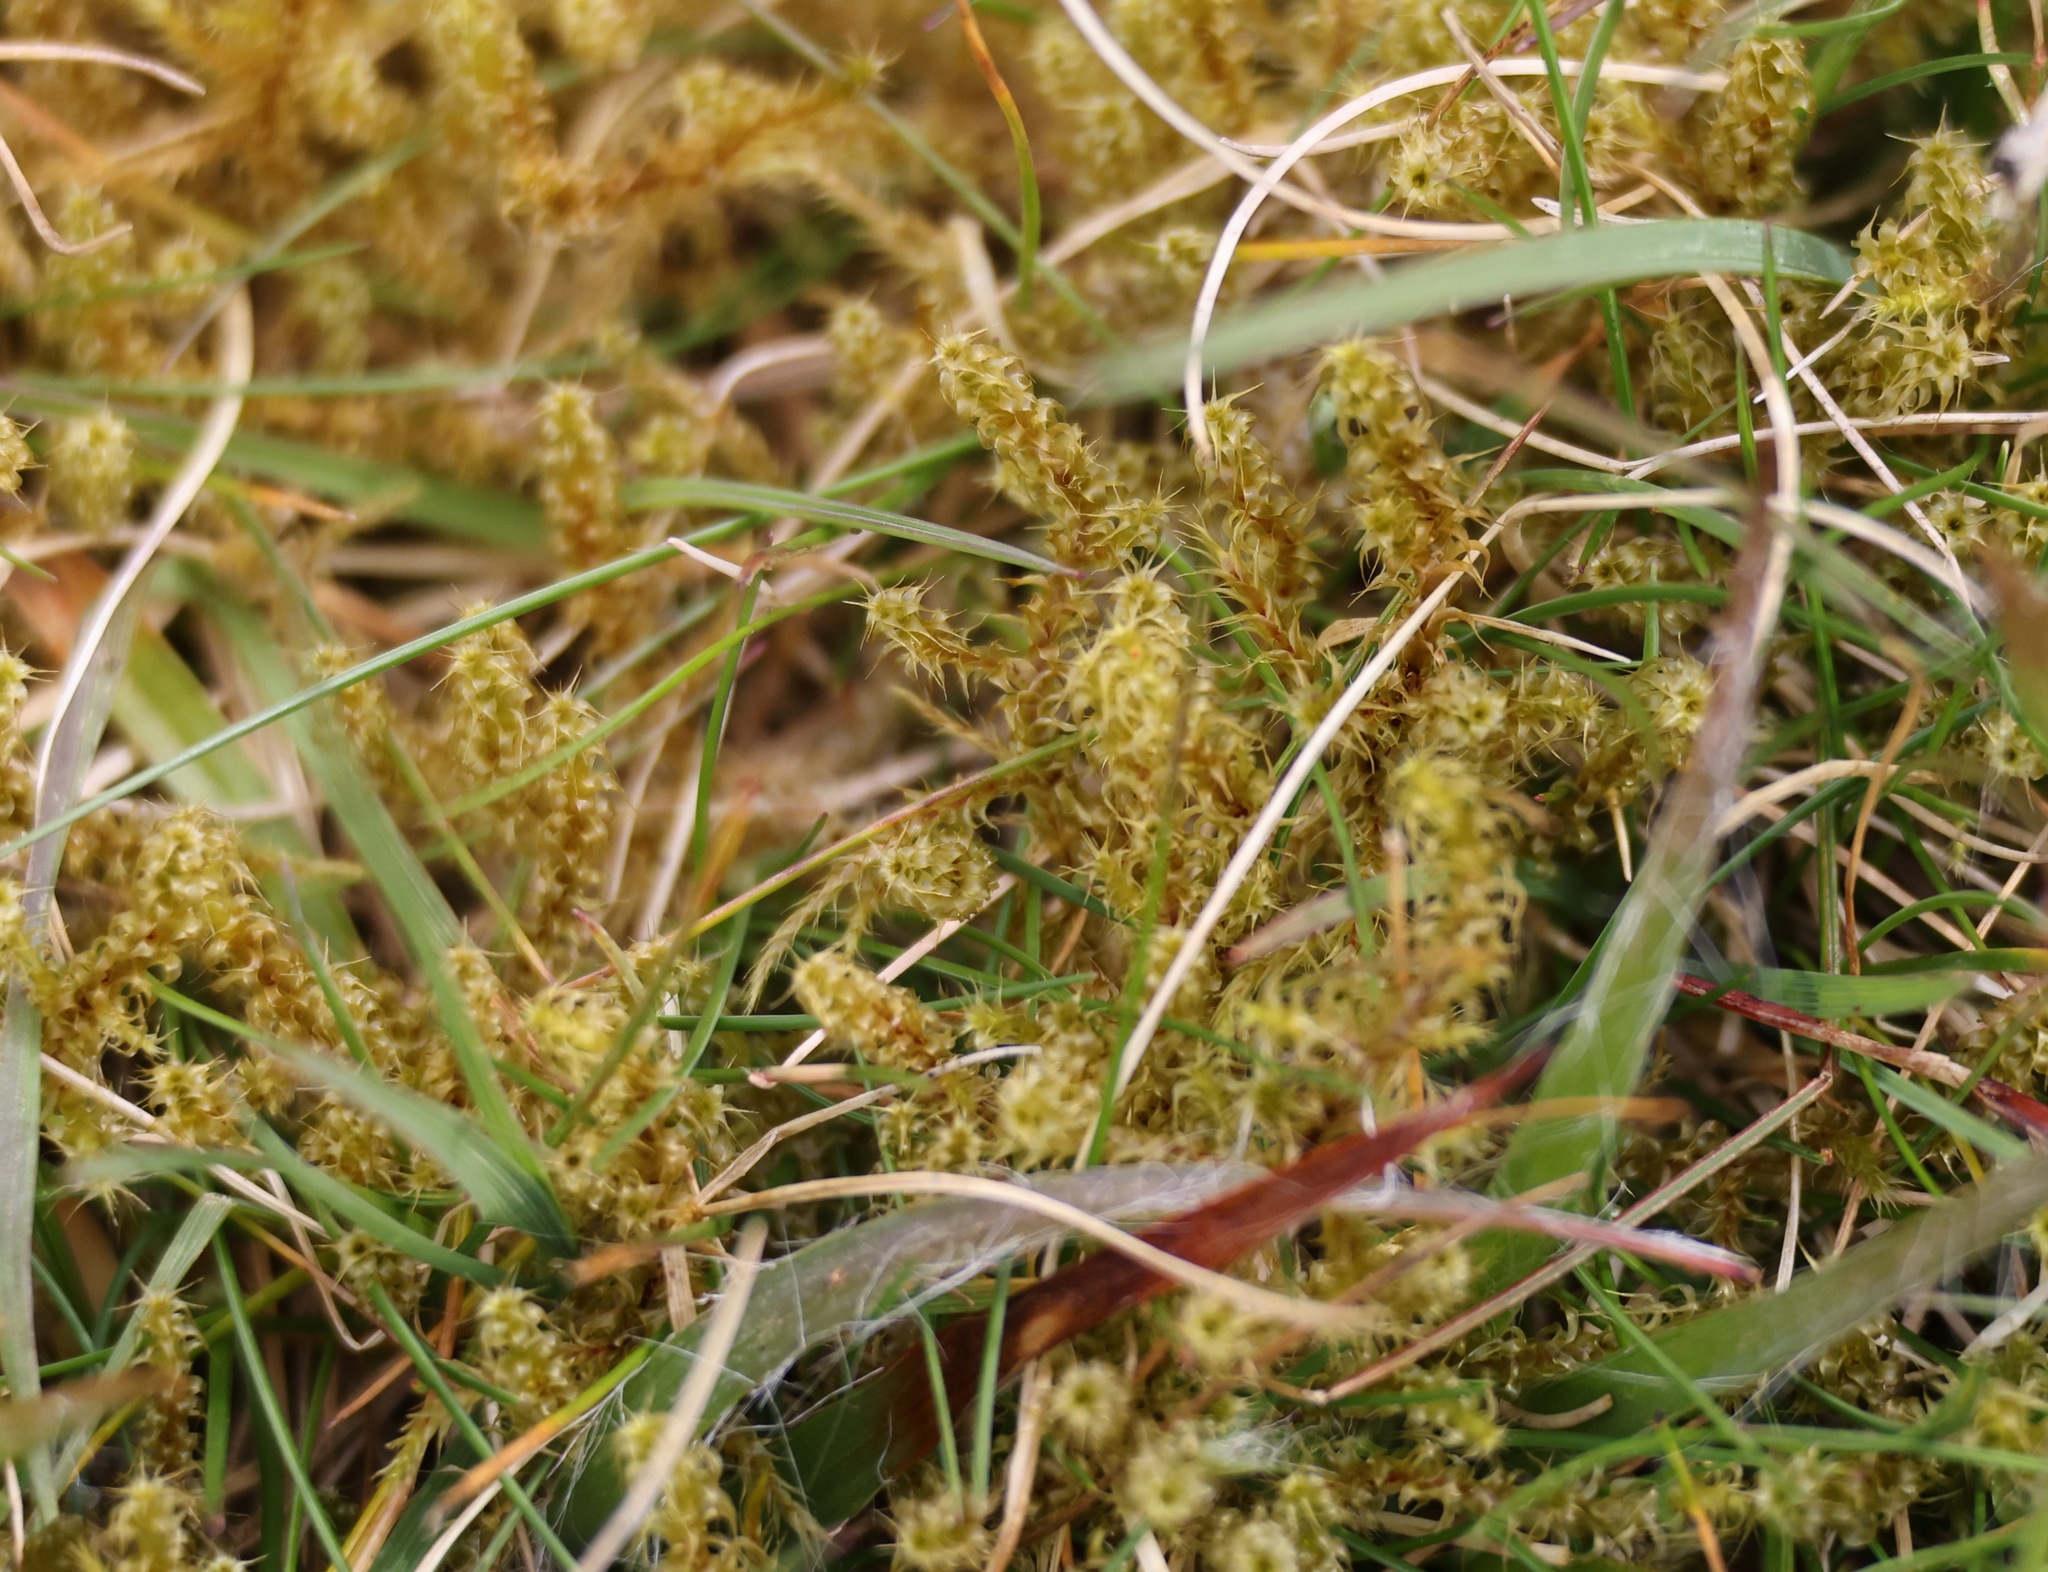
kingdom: Plantae
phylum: Bryophyta
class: Bryopsida
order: Hypnales
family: Hylocomiaceae
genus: Rhytidiadelphus
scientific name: Rhytidiadelphus squarrosus
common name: Springy turf-moss
